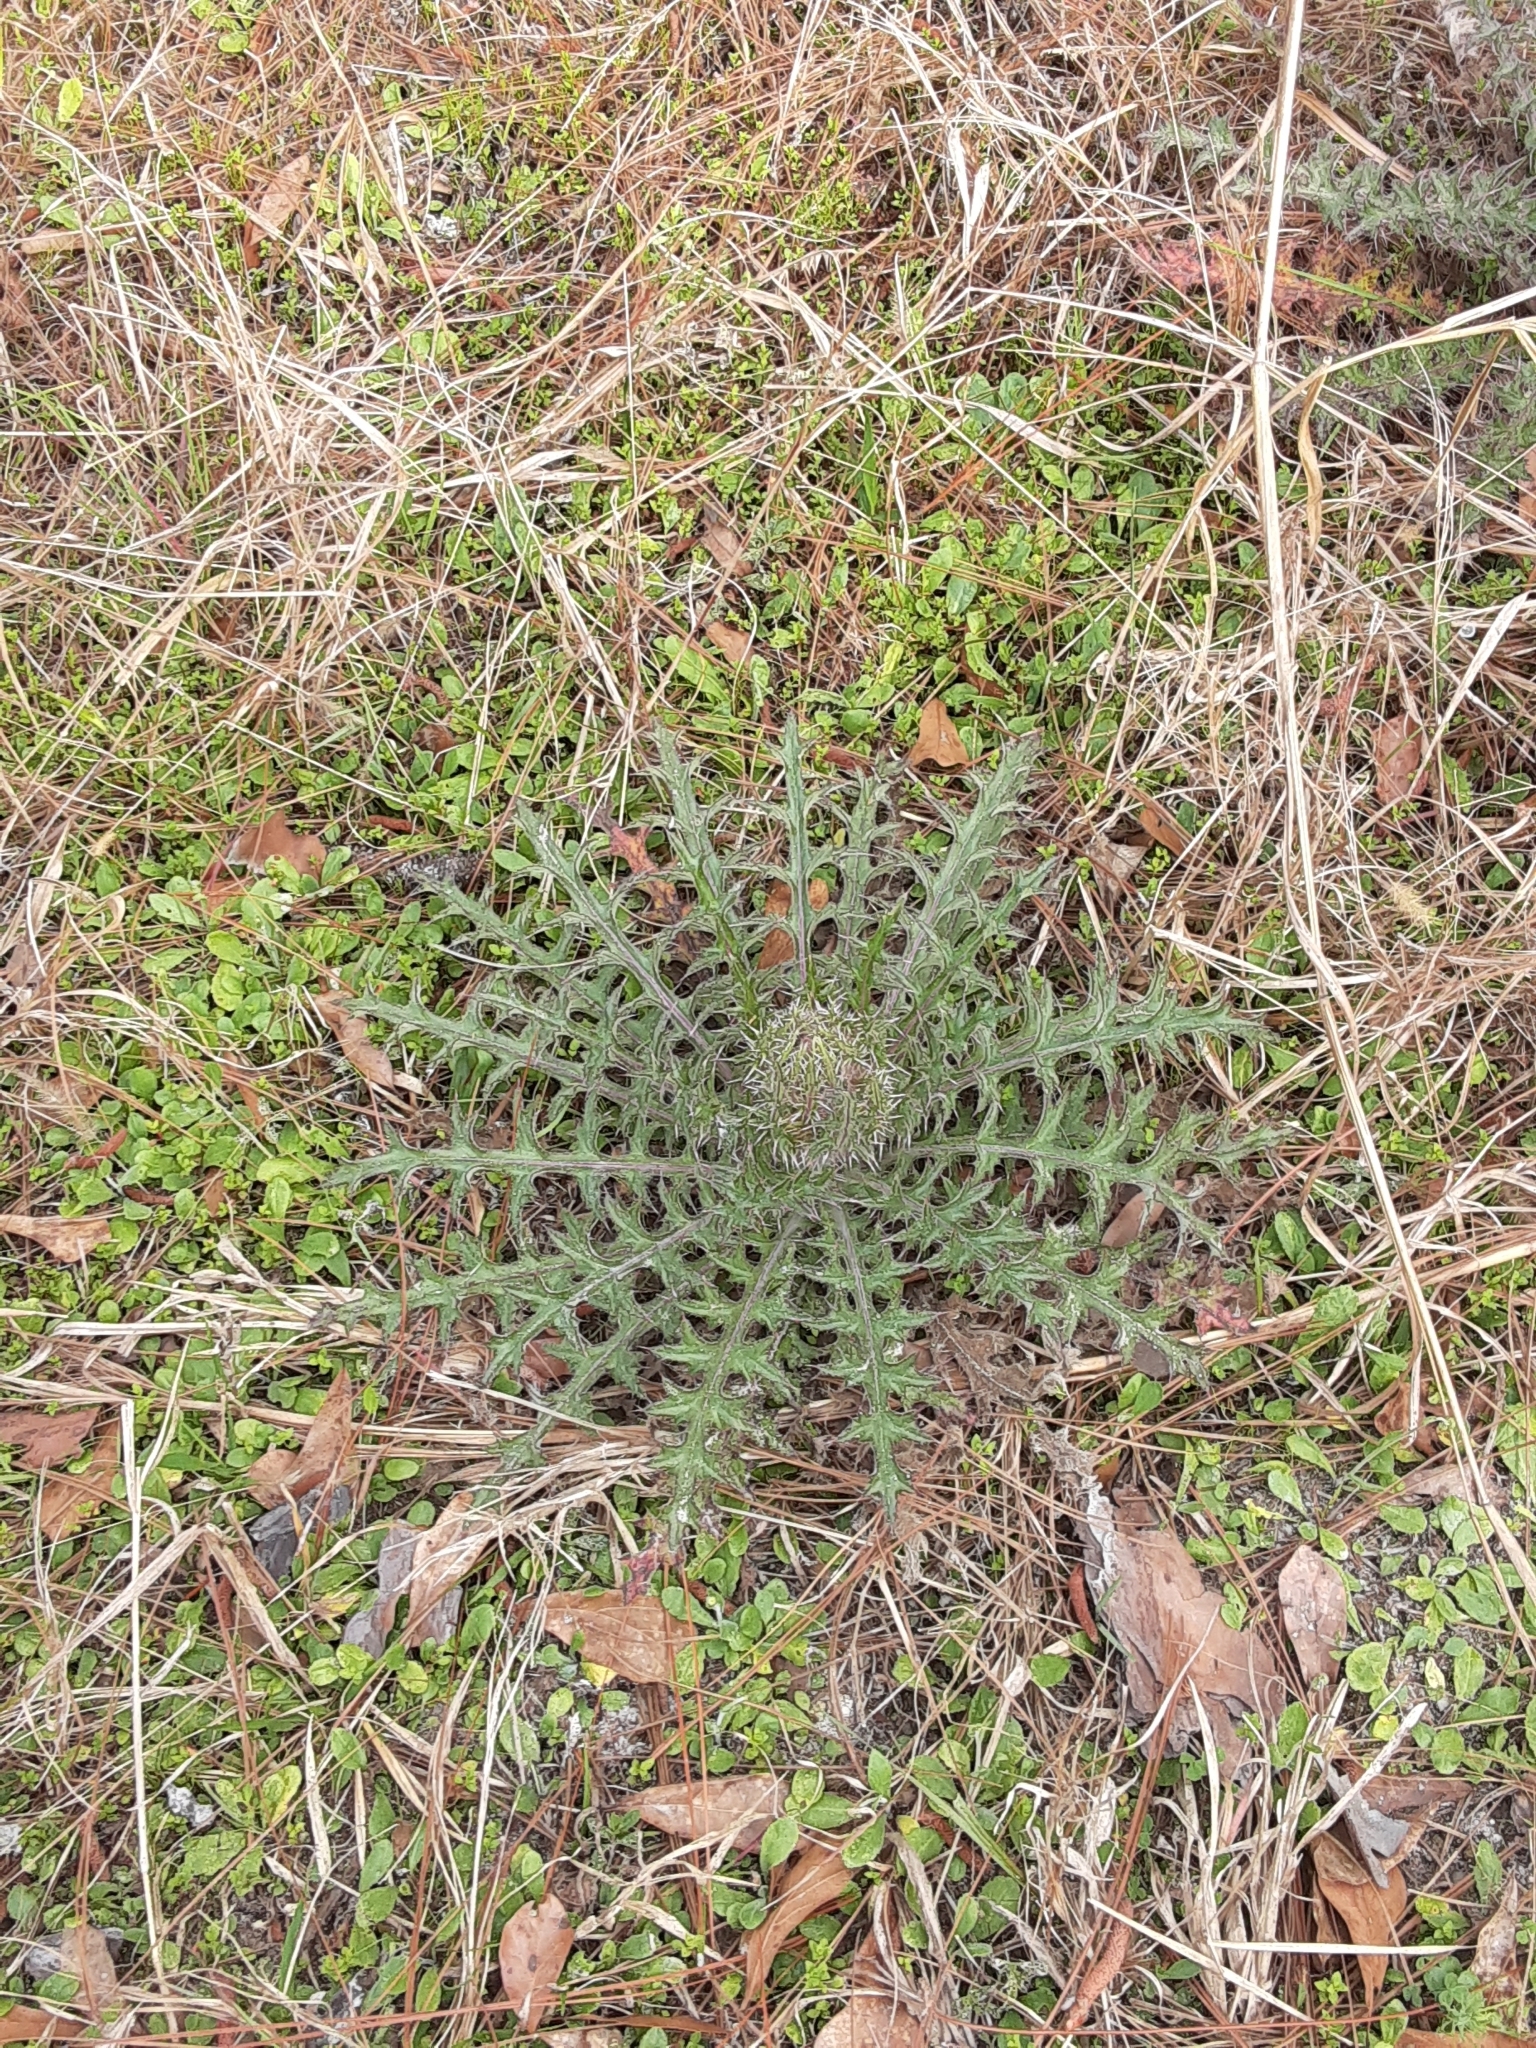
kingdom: Plantae
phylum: Tracheophyta
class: Magnoliopsida
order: Asterales
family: Asteraceae
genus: Cirsium
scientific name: Cirsium horridulum
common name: Bristly thistle
